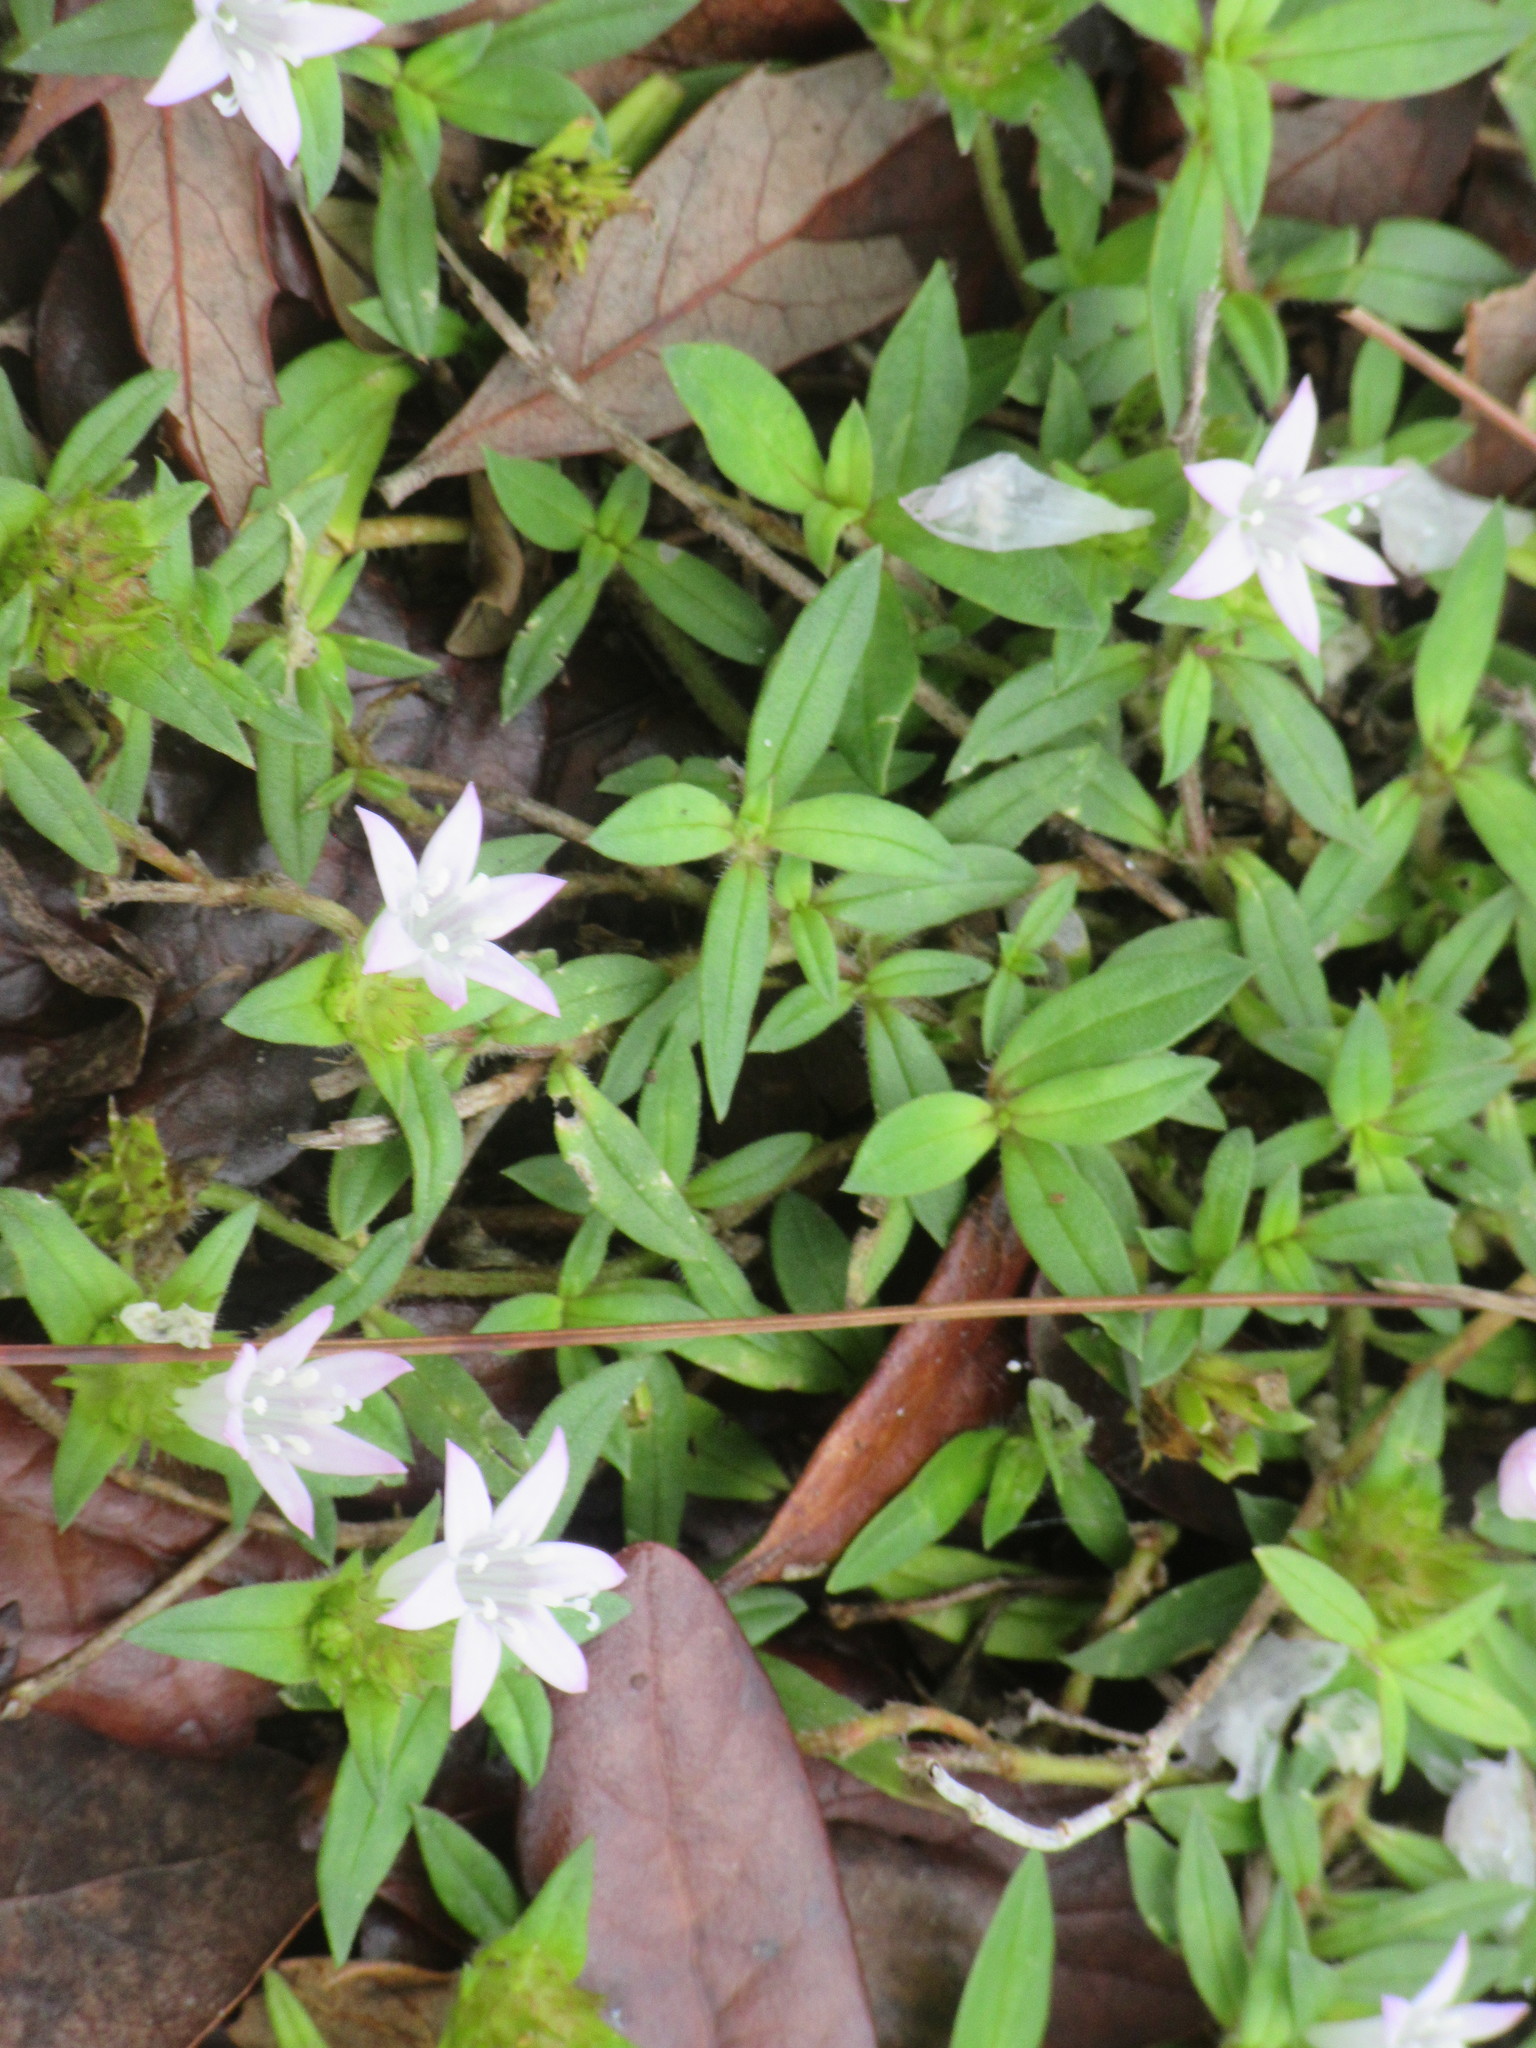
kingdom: Plantae
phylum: Tracheophyta
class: Magnoliopsida
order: Gentianales
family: Rubiaceae
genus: Richardia
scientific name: Richardia grandiflora
